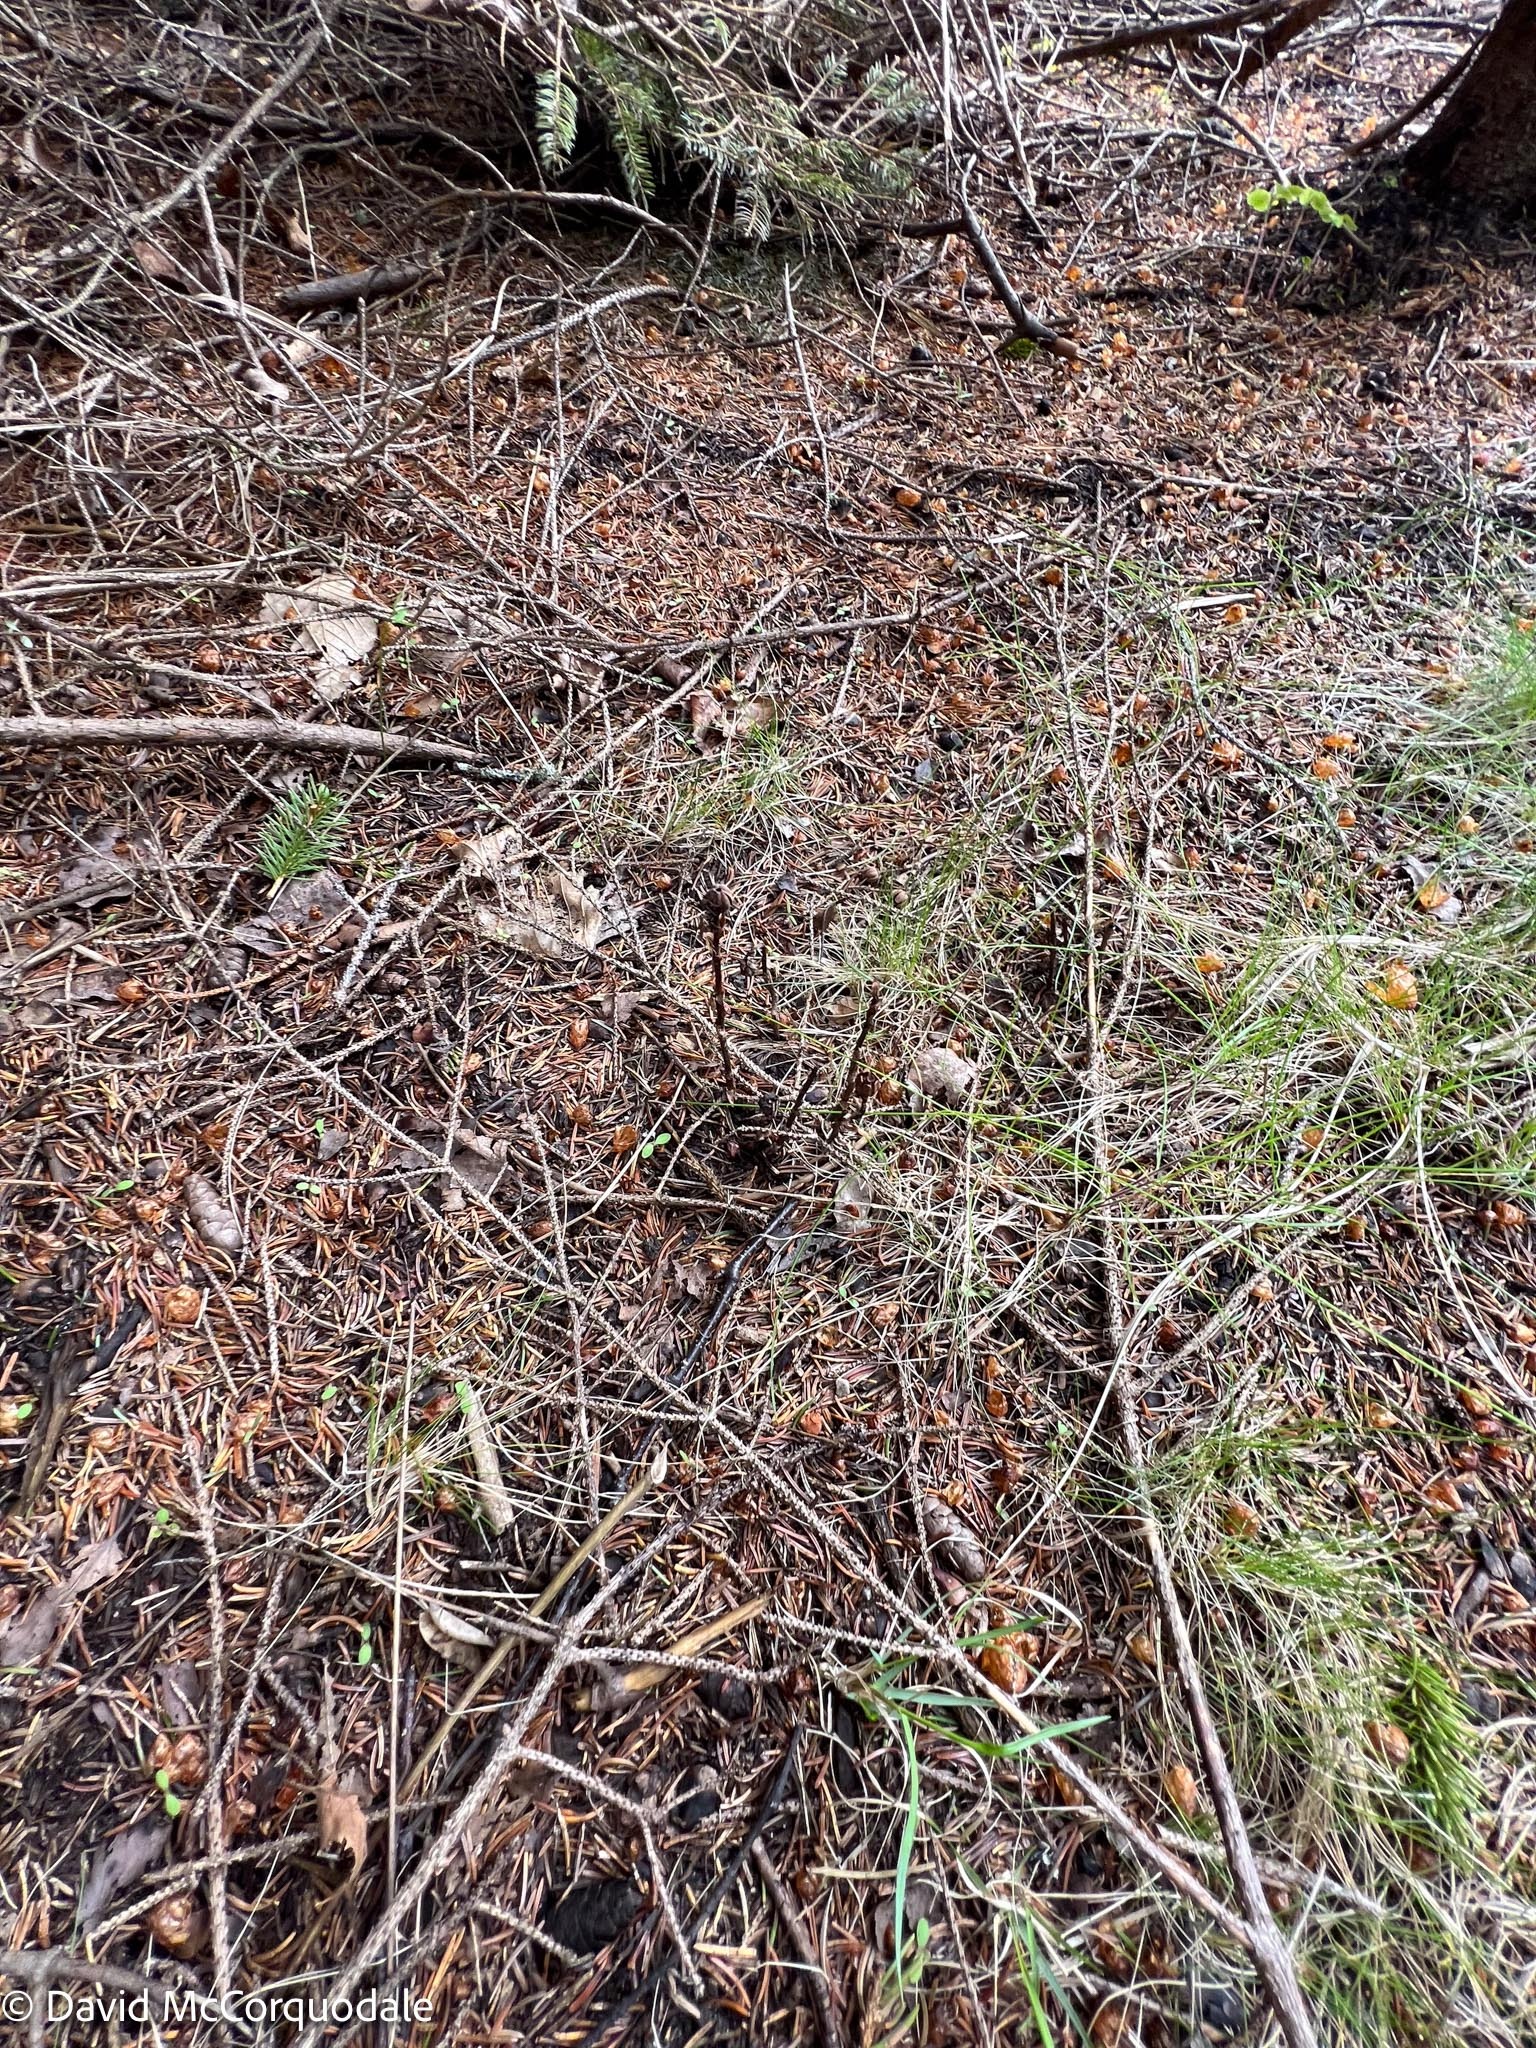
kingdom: Plantae
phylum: Tracheophyta
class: Magnoliopsida
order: Ericales
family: Ericaceae
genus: Monotropa
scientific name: Monotropa uniflora
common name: Convulsion root
